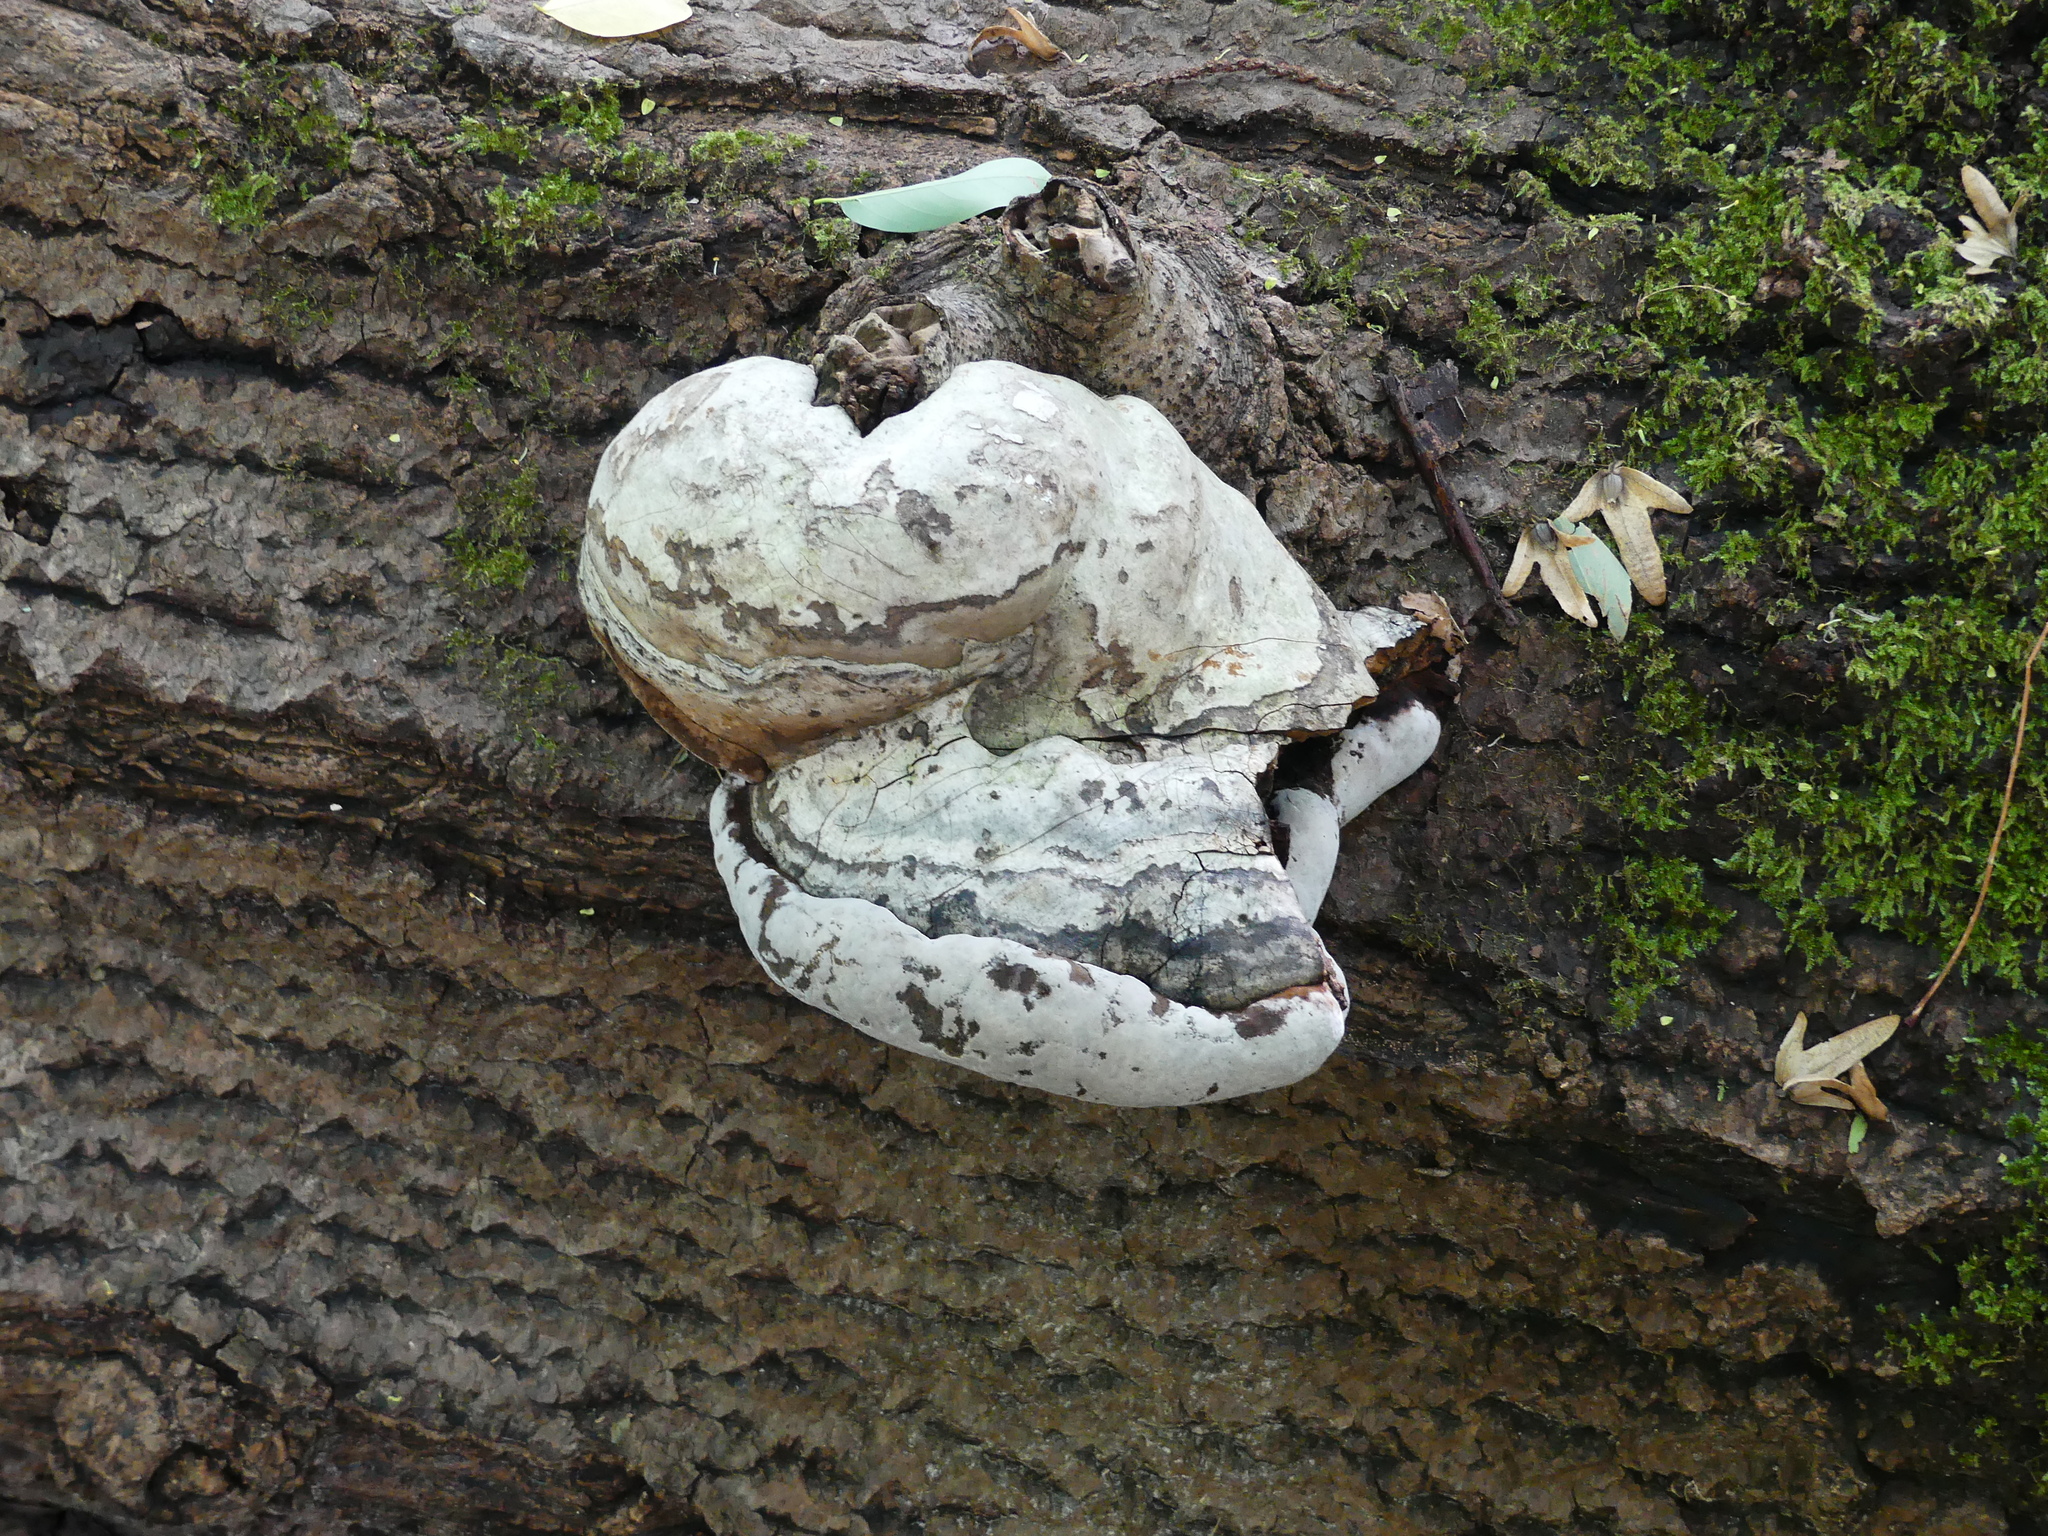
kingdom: Fungi
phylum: Basidiomycota
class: Agaricomycetes
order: Polyporales
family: Polyporaceae
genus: Fomes
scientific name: Fomes fomentarius
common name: Hoof fungus
